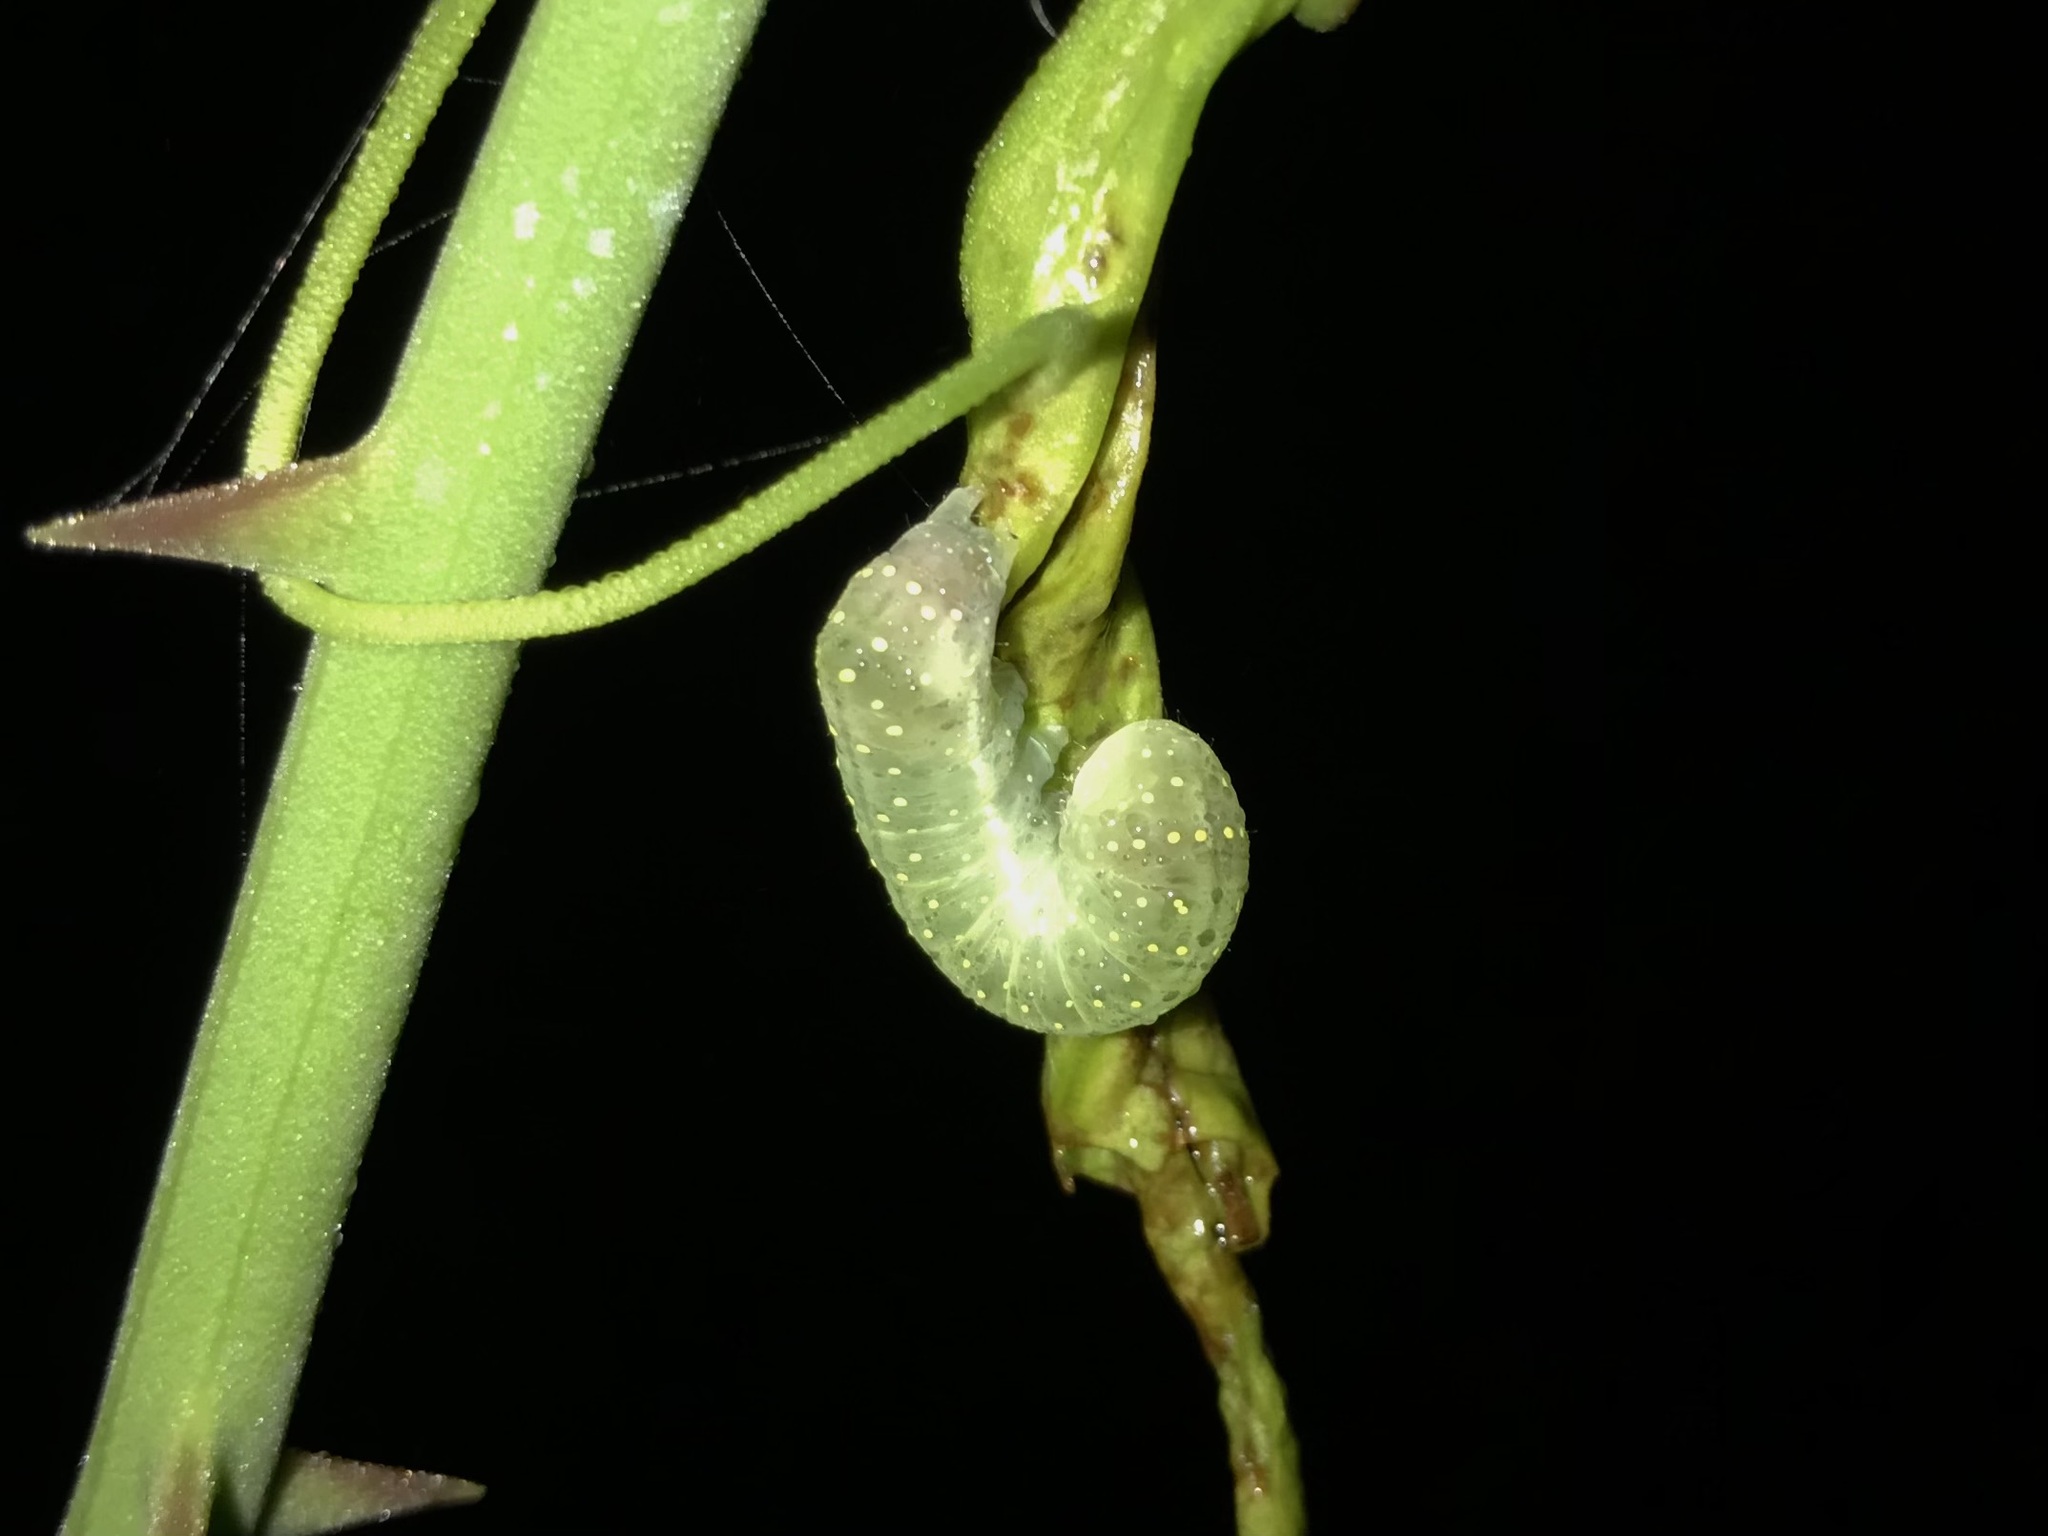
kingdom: Animalia
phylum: Arthropoda
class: Insecta
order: Lepidoptera
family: Noctuidae
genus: Phosphila
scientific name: Phosphila miselioides
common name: Spotted phosphila moth
